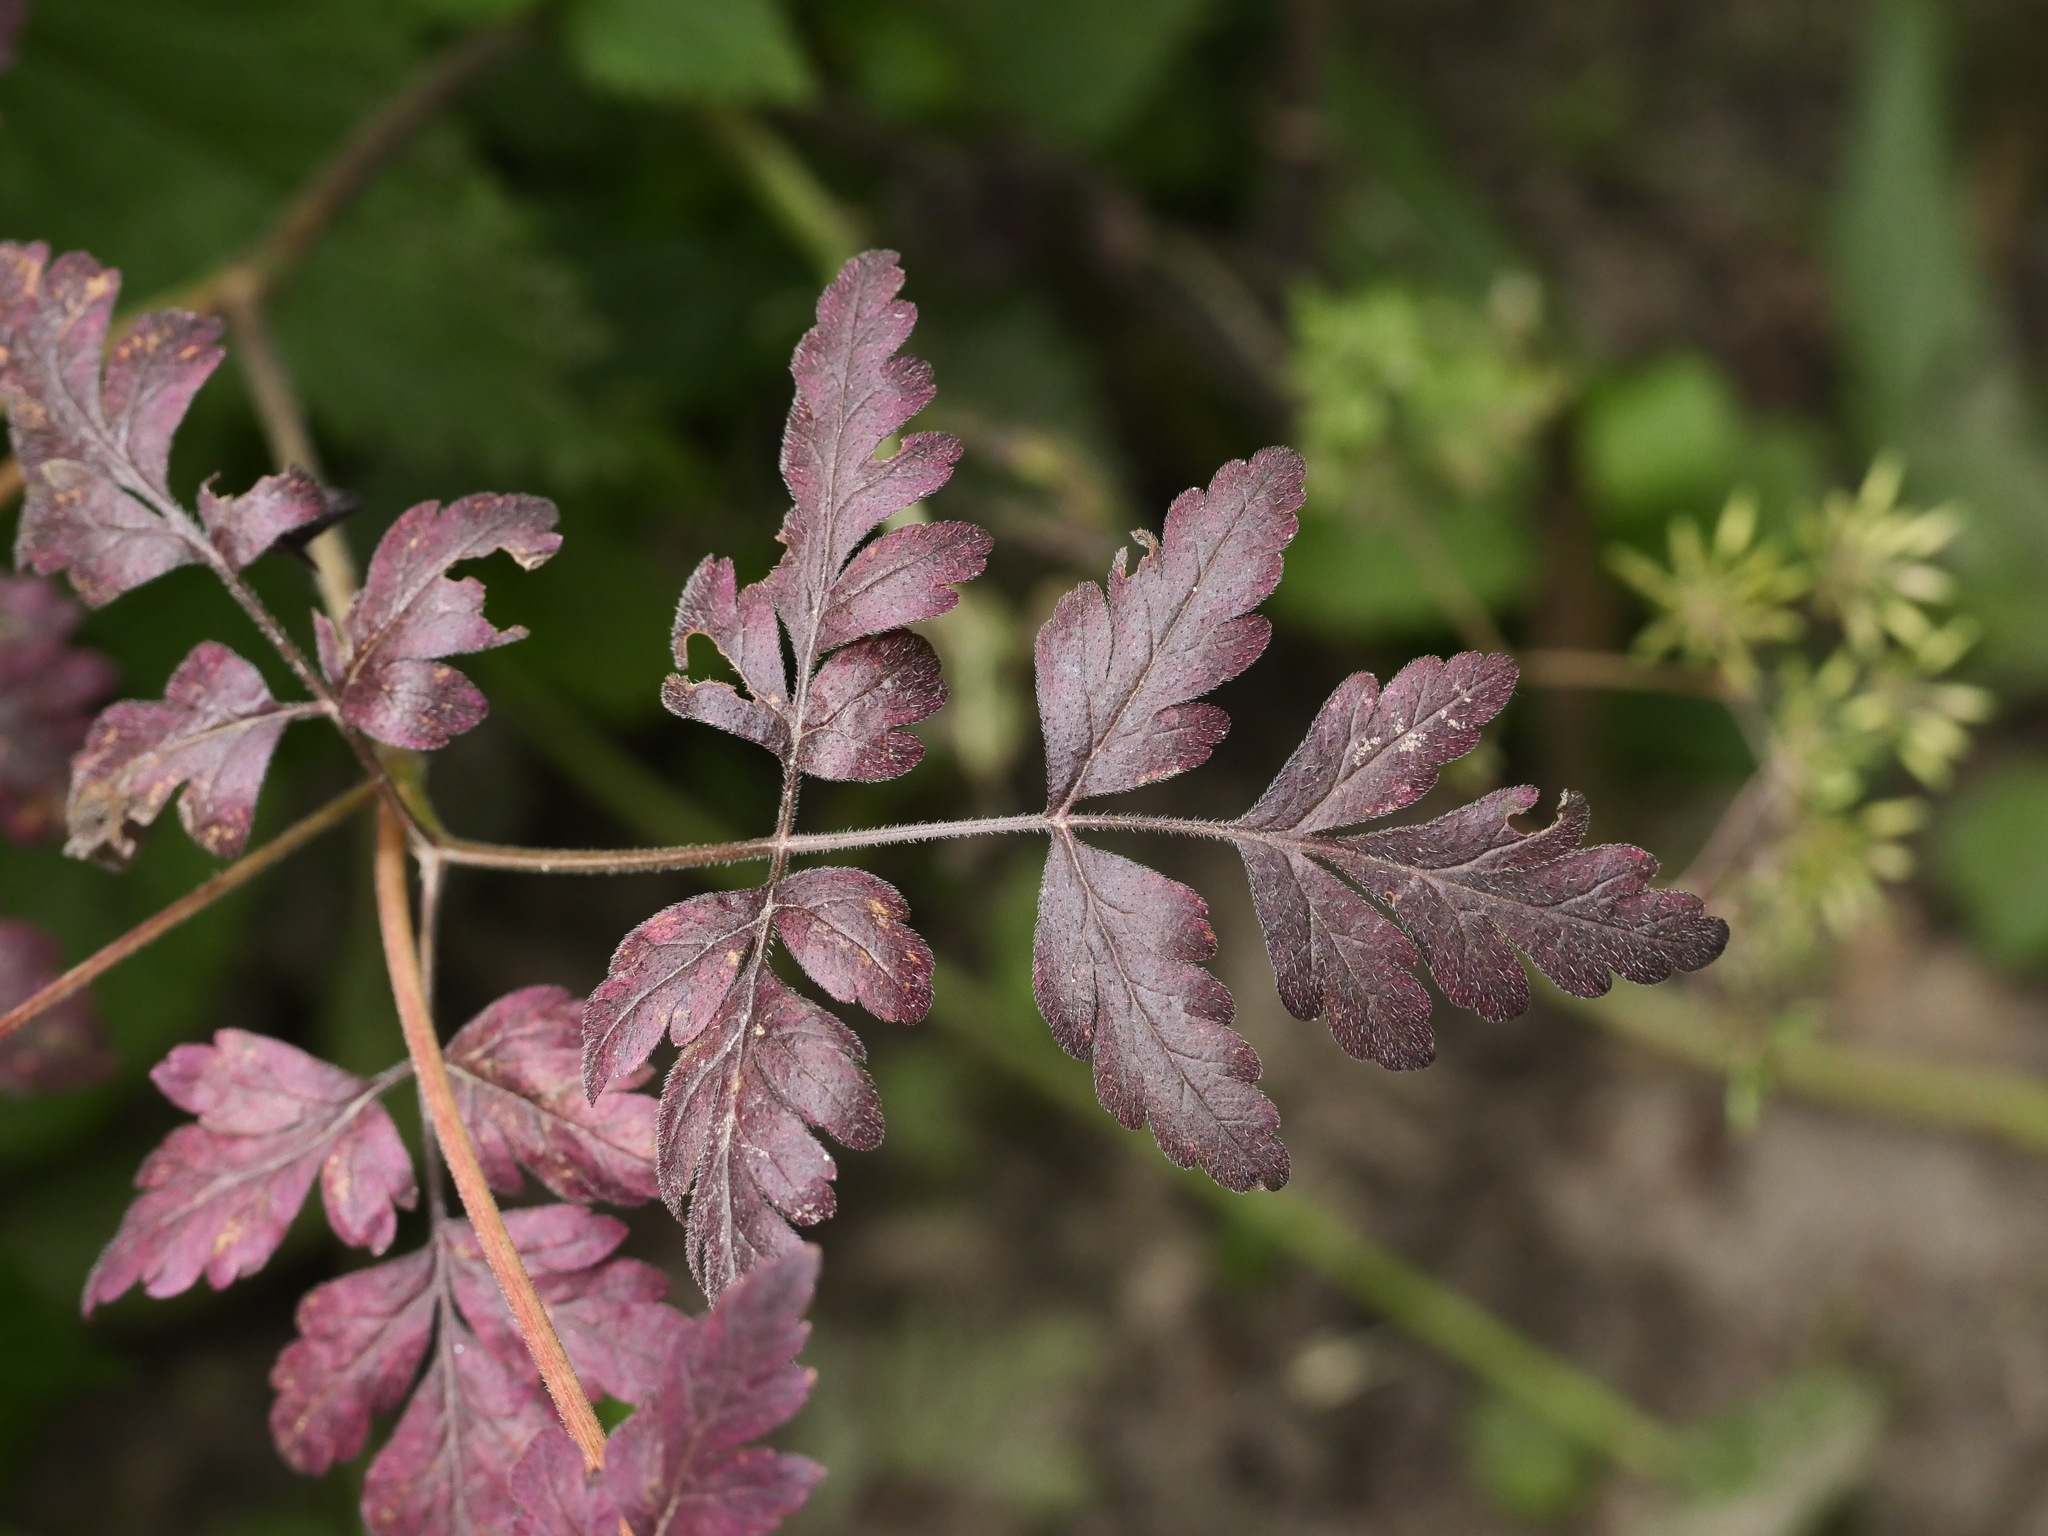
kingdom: Plantae
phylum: Tracheophyta
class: Magnoliopsida
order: Apiales
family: Apiaceae
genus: Chaerophyllum
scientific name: Chaerophyllum temulum
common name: Rough chervil
